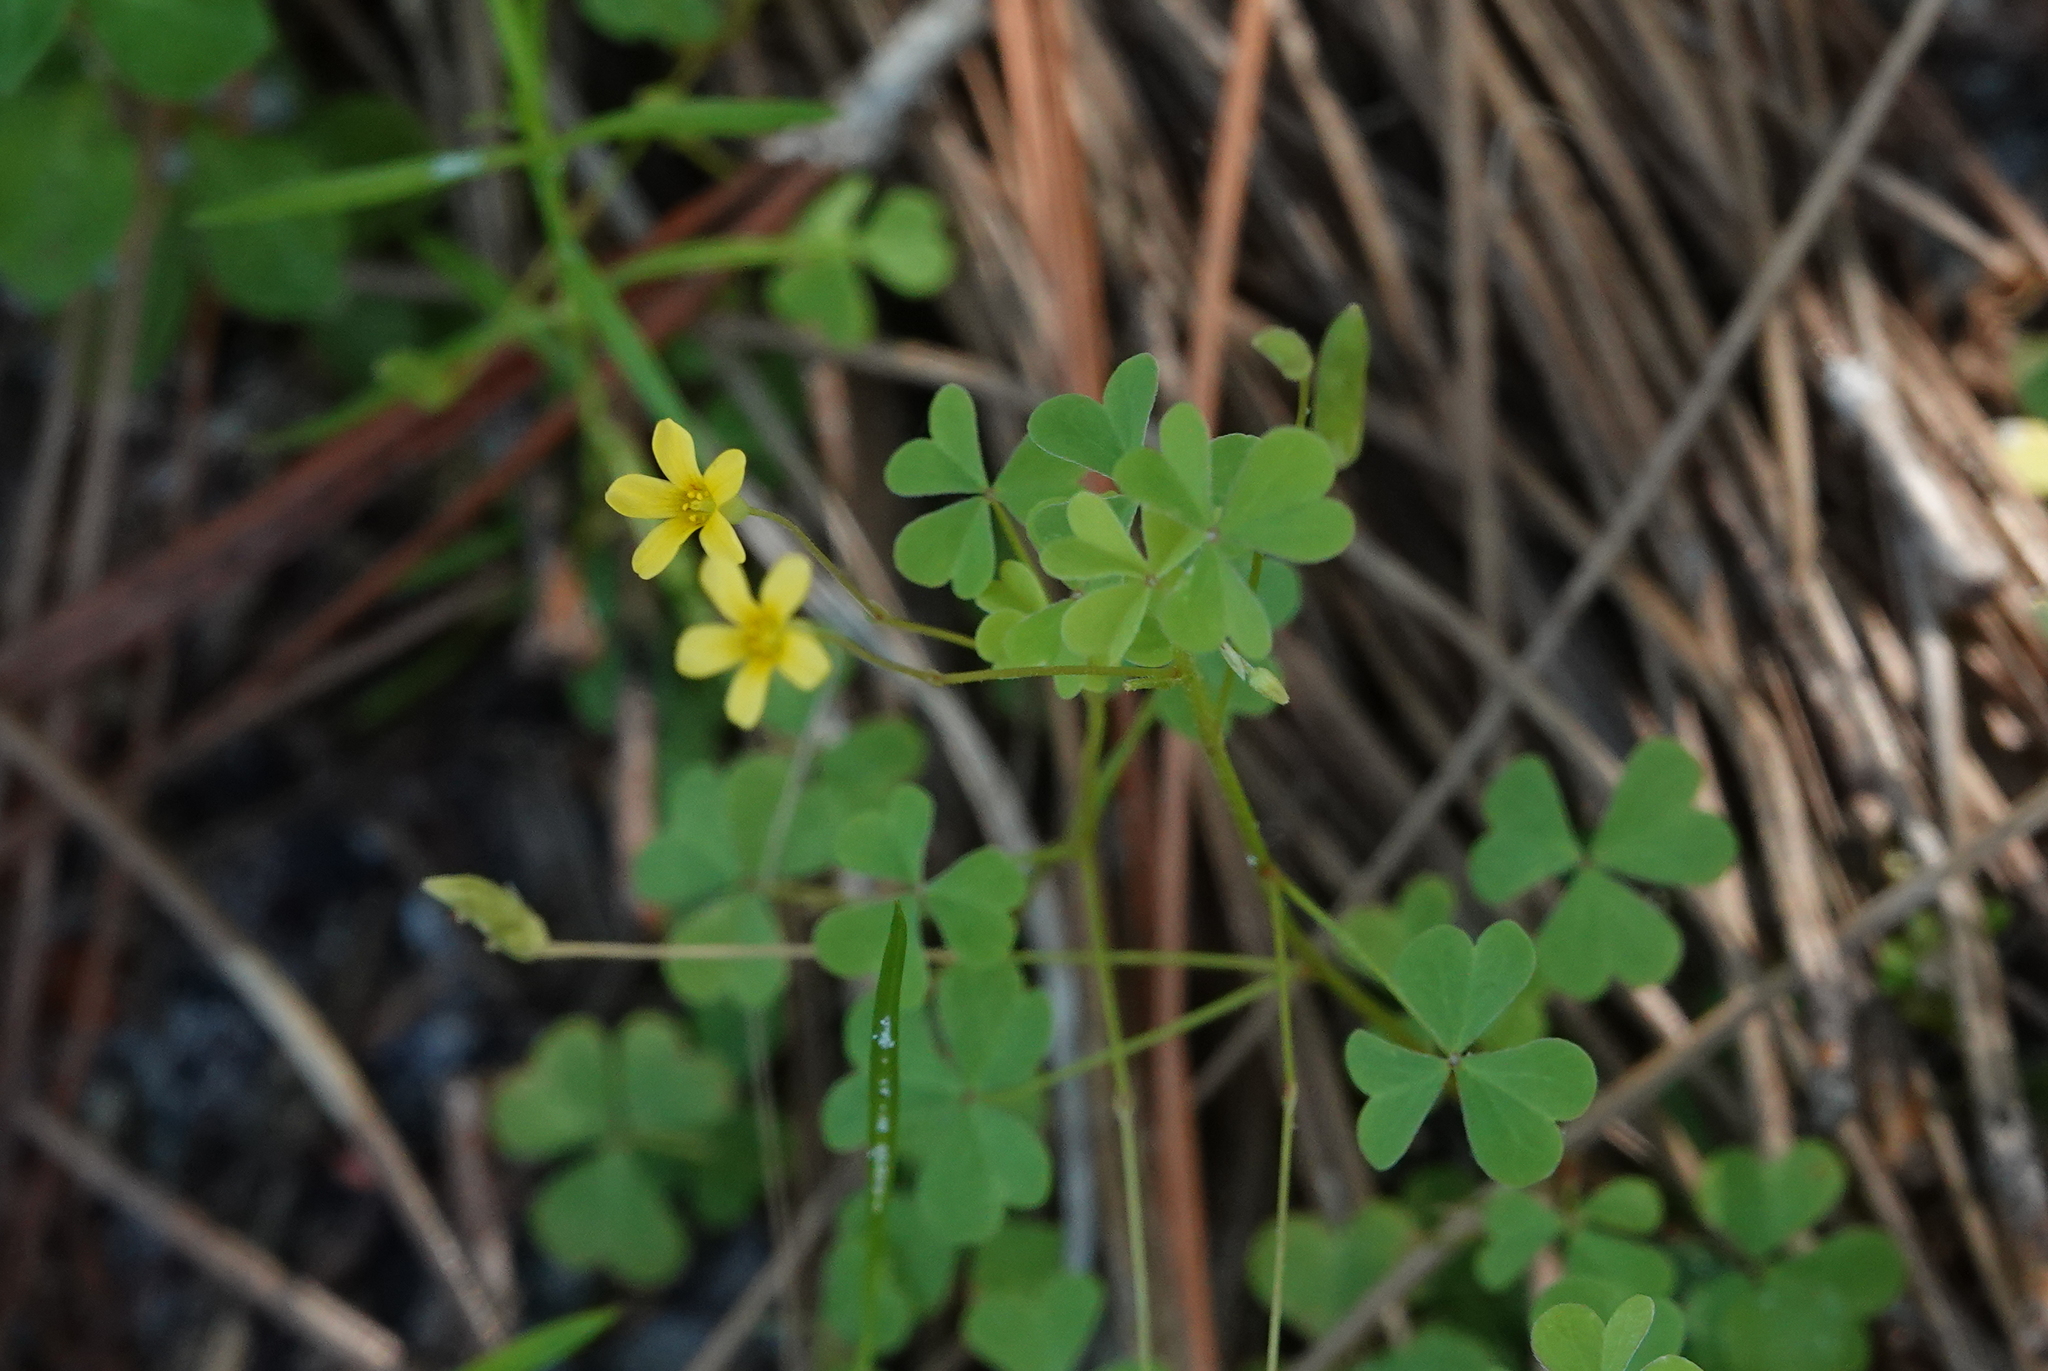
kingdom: Plantae
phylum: Tracheophyta
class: Magnoliopsida
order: Oxalidales
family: Oxalidaceae
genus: Oxalis
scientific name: Oxalis corniculata
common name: Procumbent yellow-sorrel
